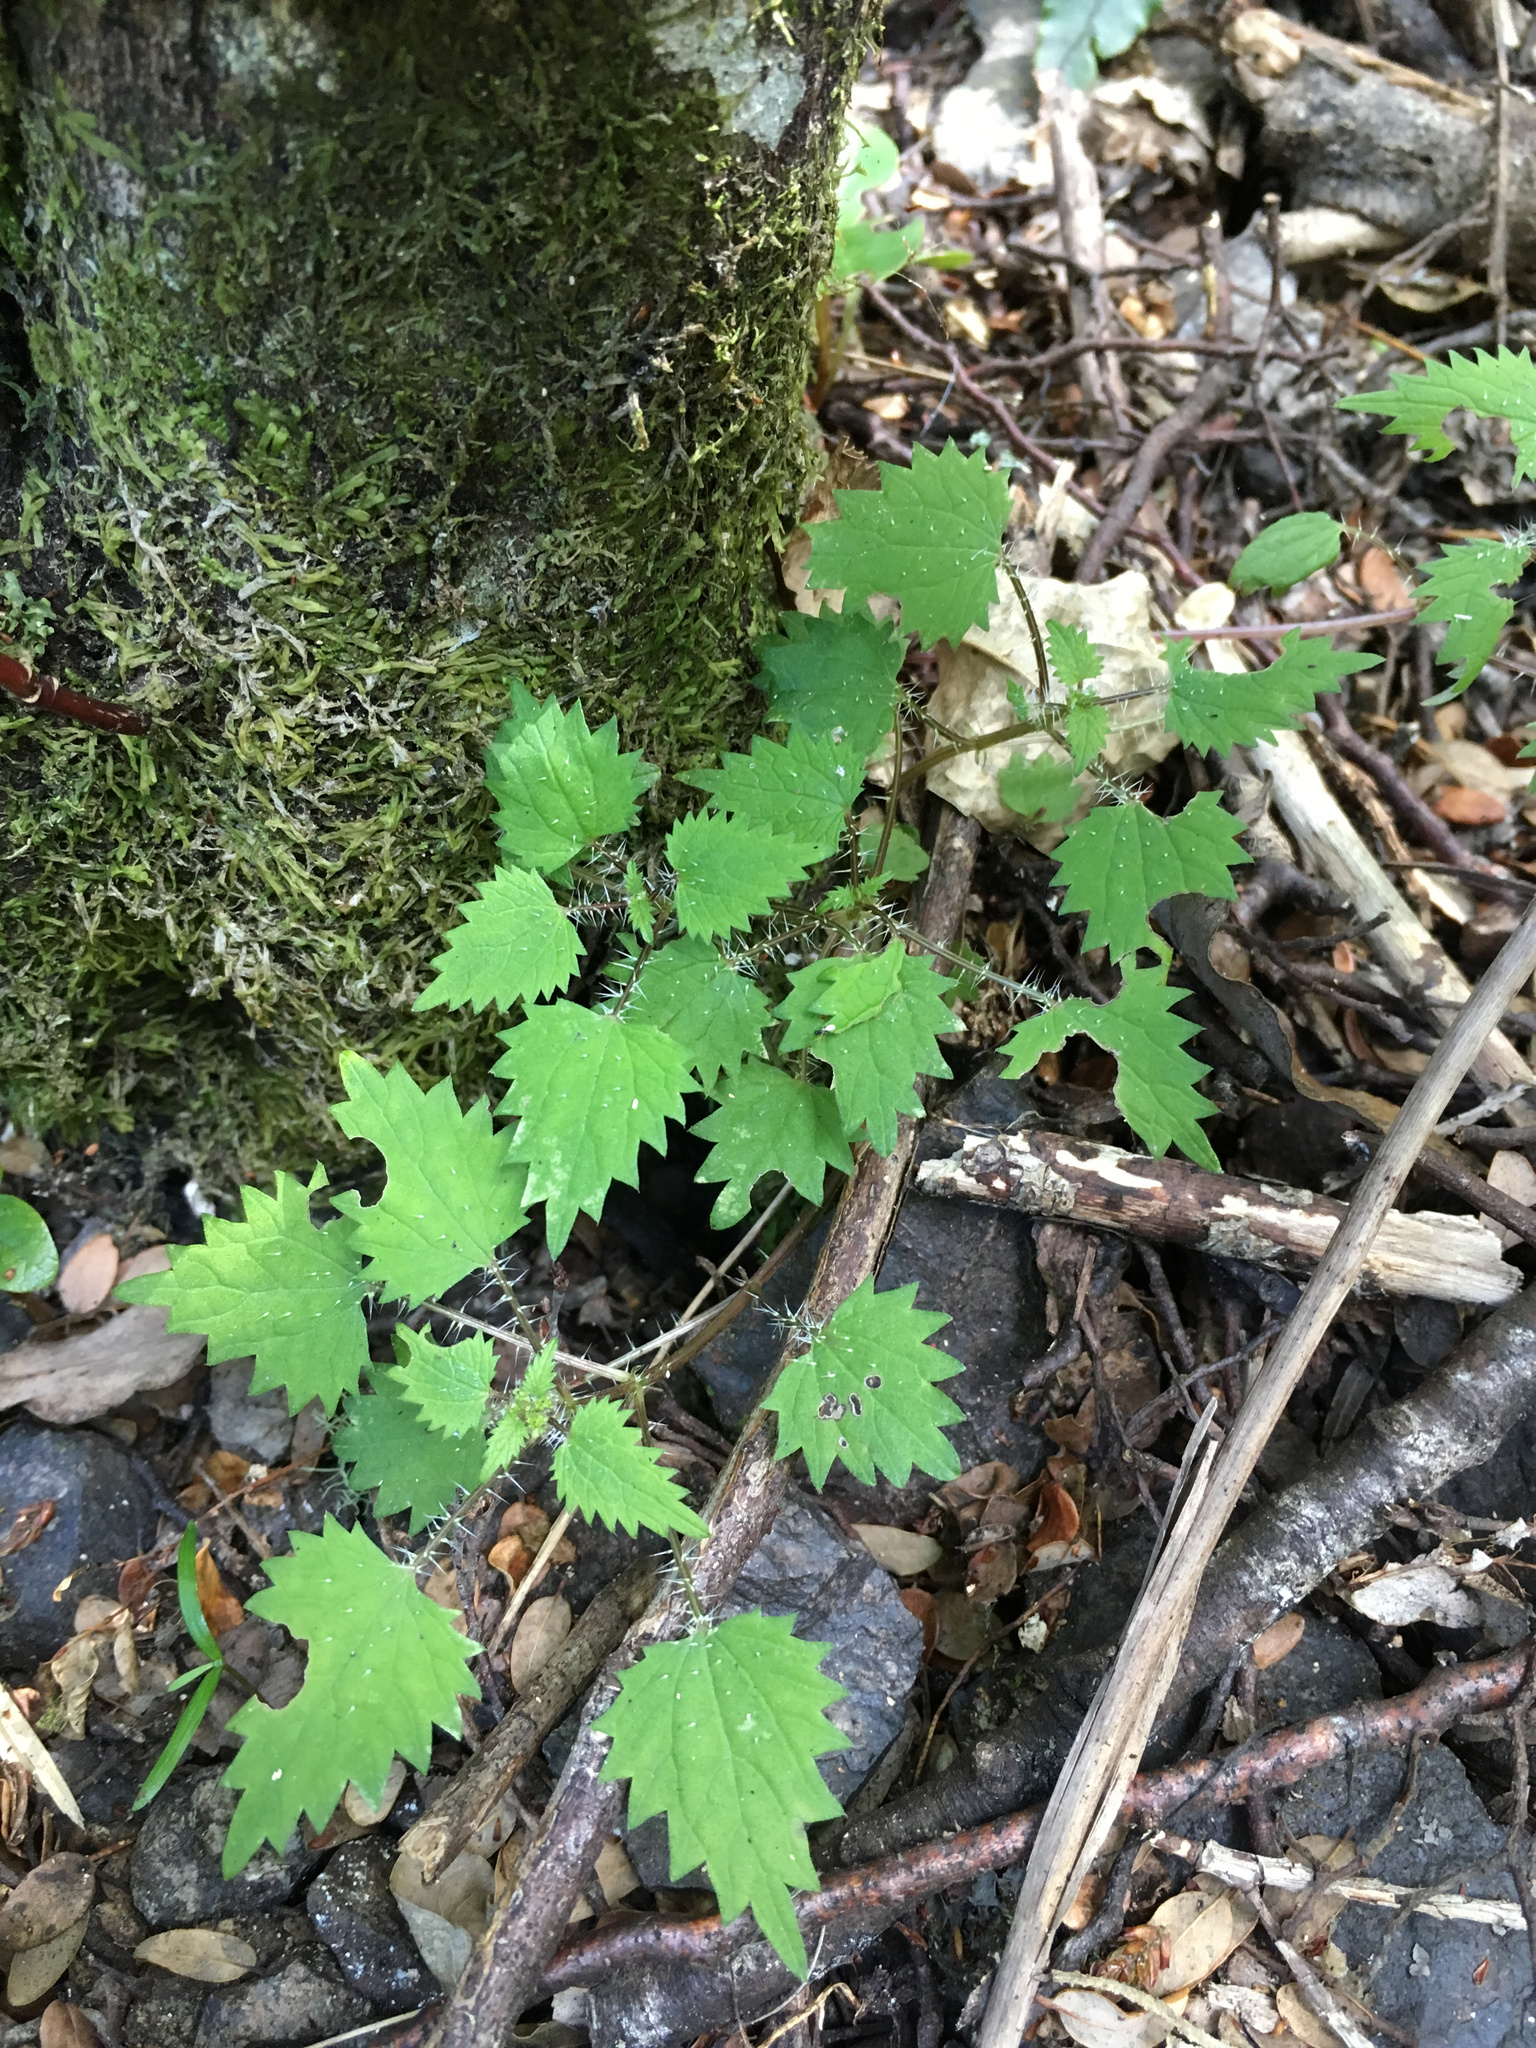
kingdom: Plantae
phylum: Tracheophyta
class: Magnoliopsida
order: Rosales
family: Urticaceae
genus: Urtica
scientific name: Urtica sykesii
